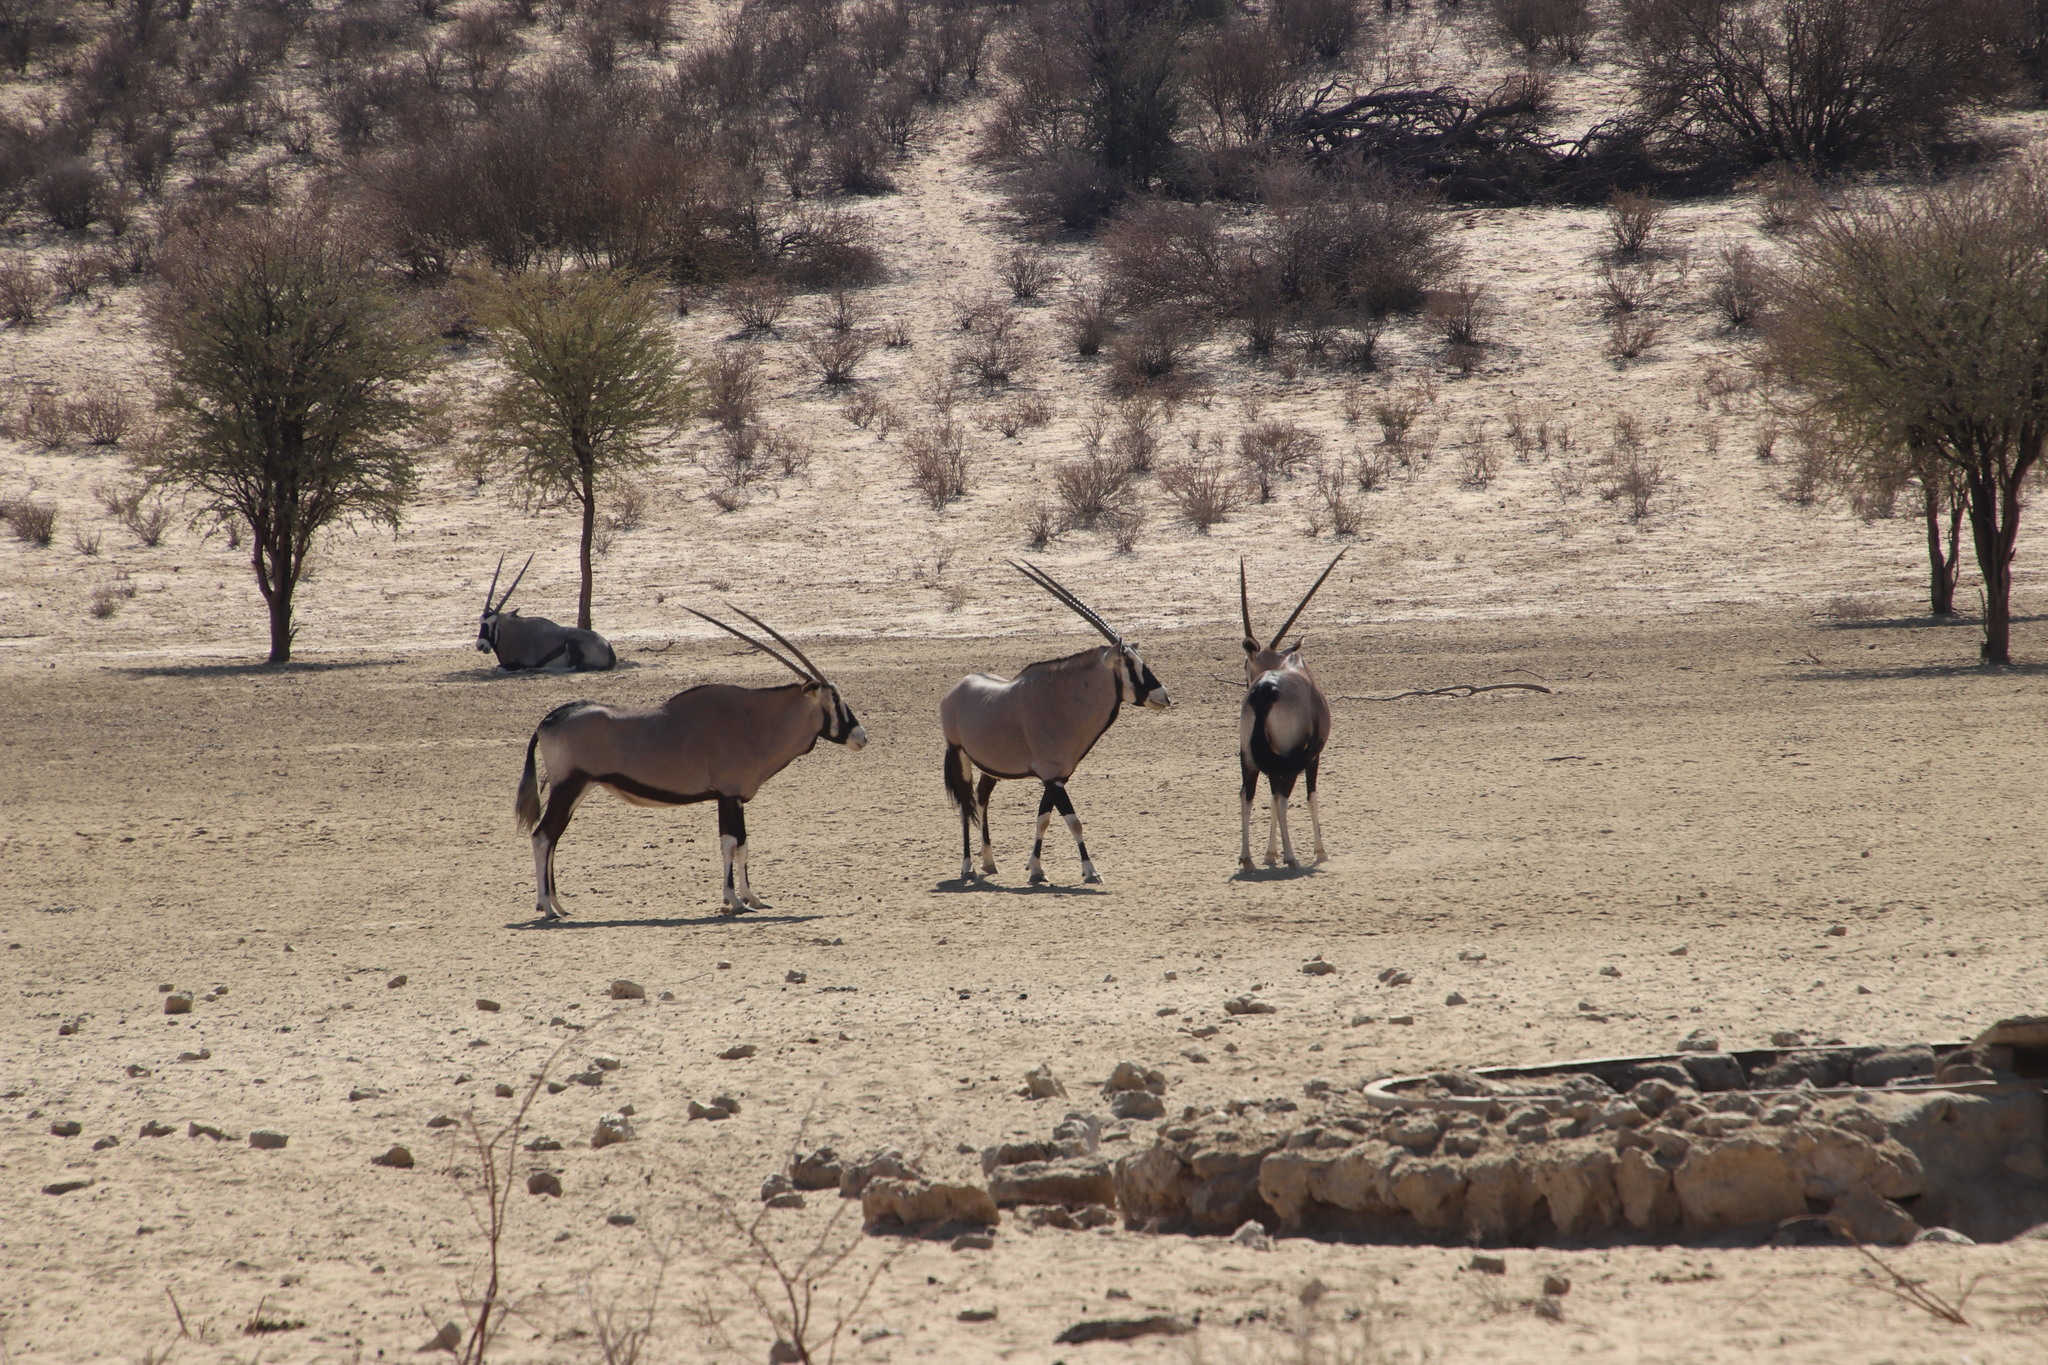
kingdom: Animalia
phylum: Chordata
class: Mammalia
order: Artiodactyla
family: Bovidae
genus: Oryx
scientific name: Oryx gazella
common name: Gemsbok
